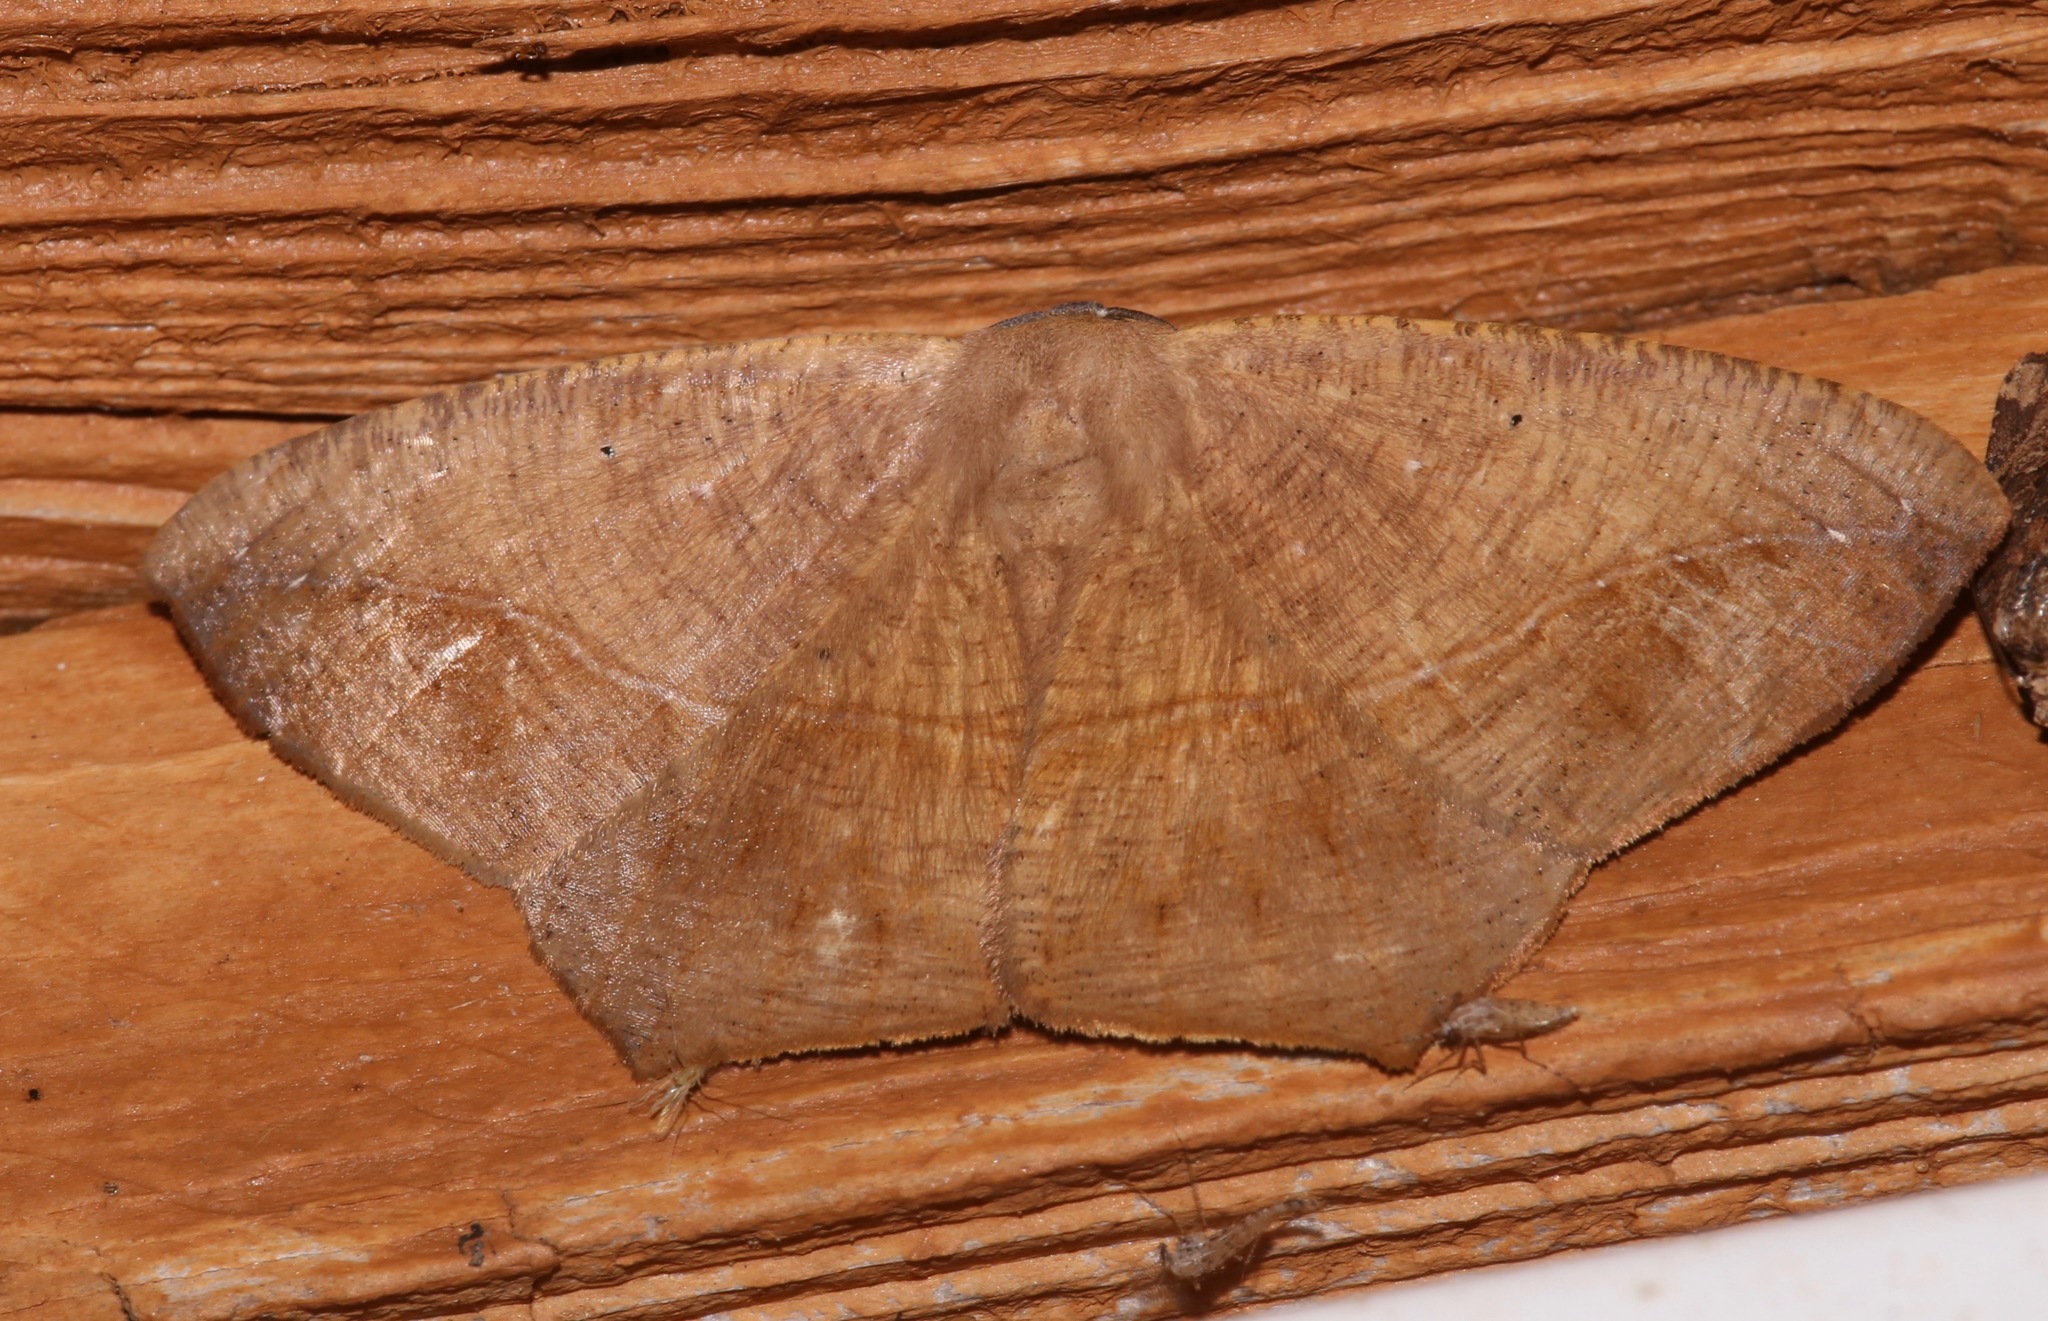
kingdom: Animalia
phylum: Arthropoda
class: Insecta
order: Lepidoptera
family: Geometridae
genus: Prochoerodes
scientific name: Prochoerodes lineola
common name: Large maple spanworm
